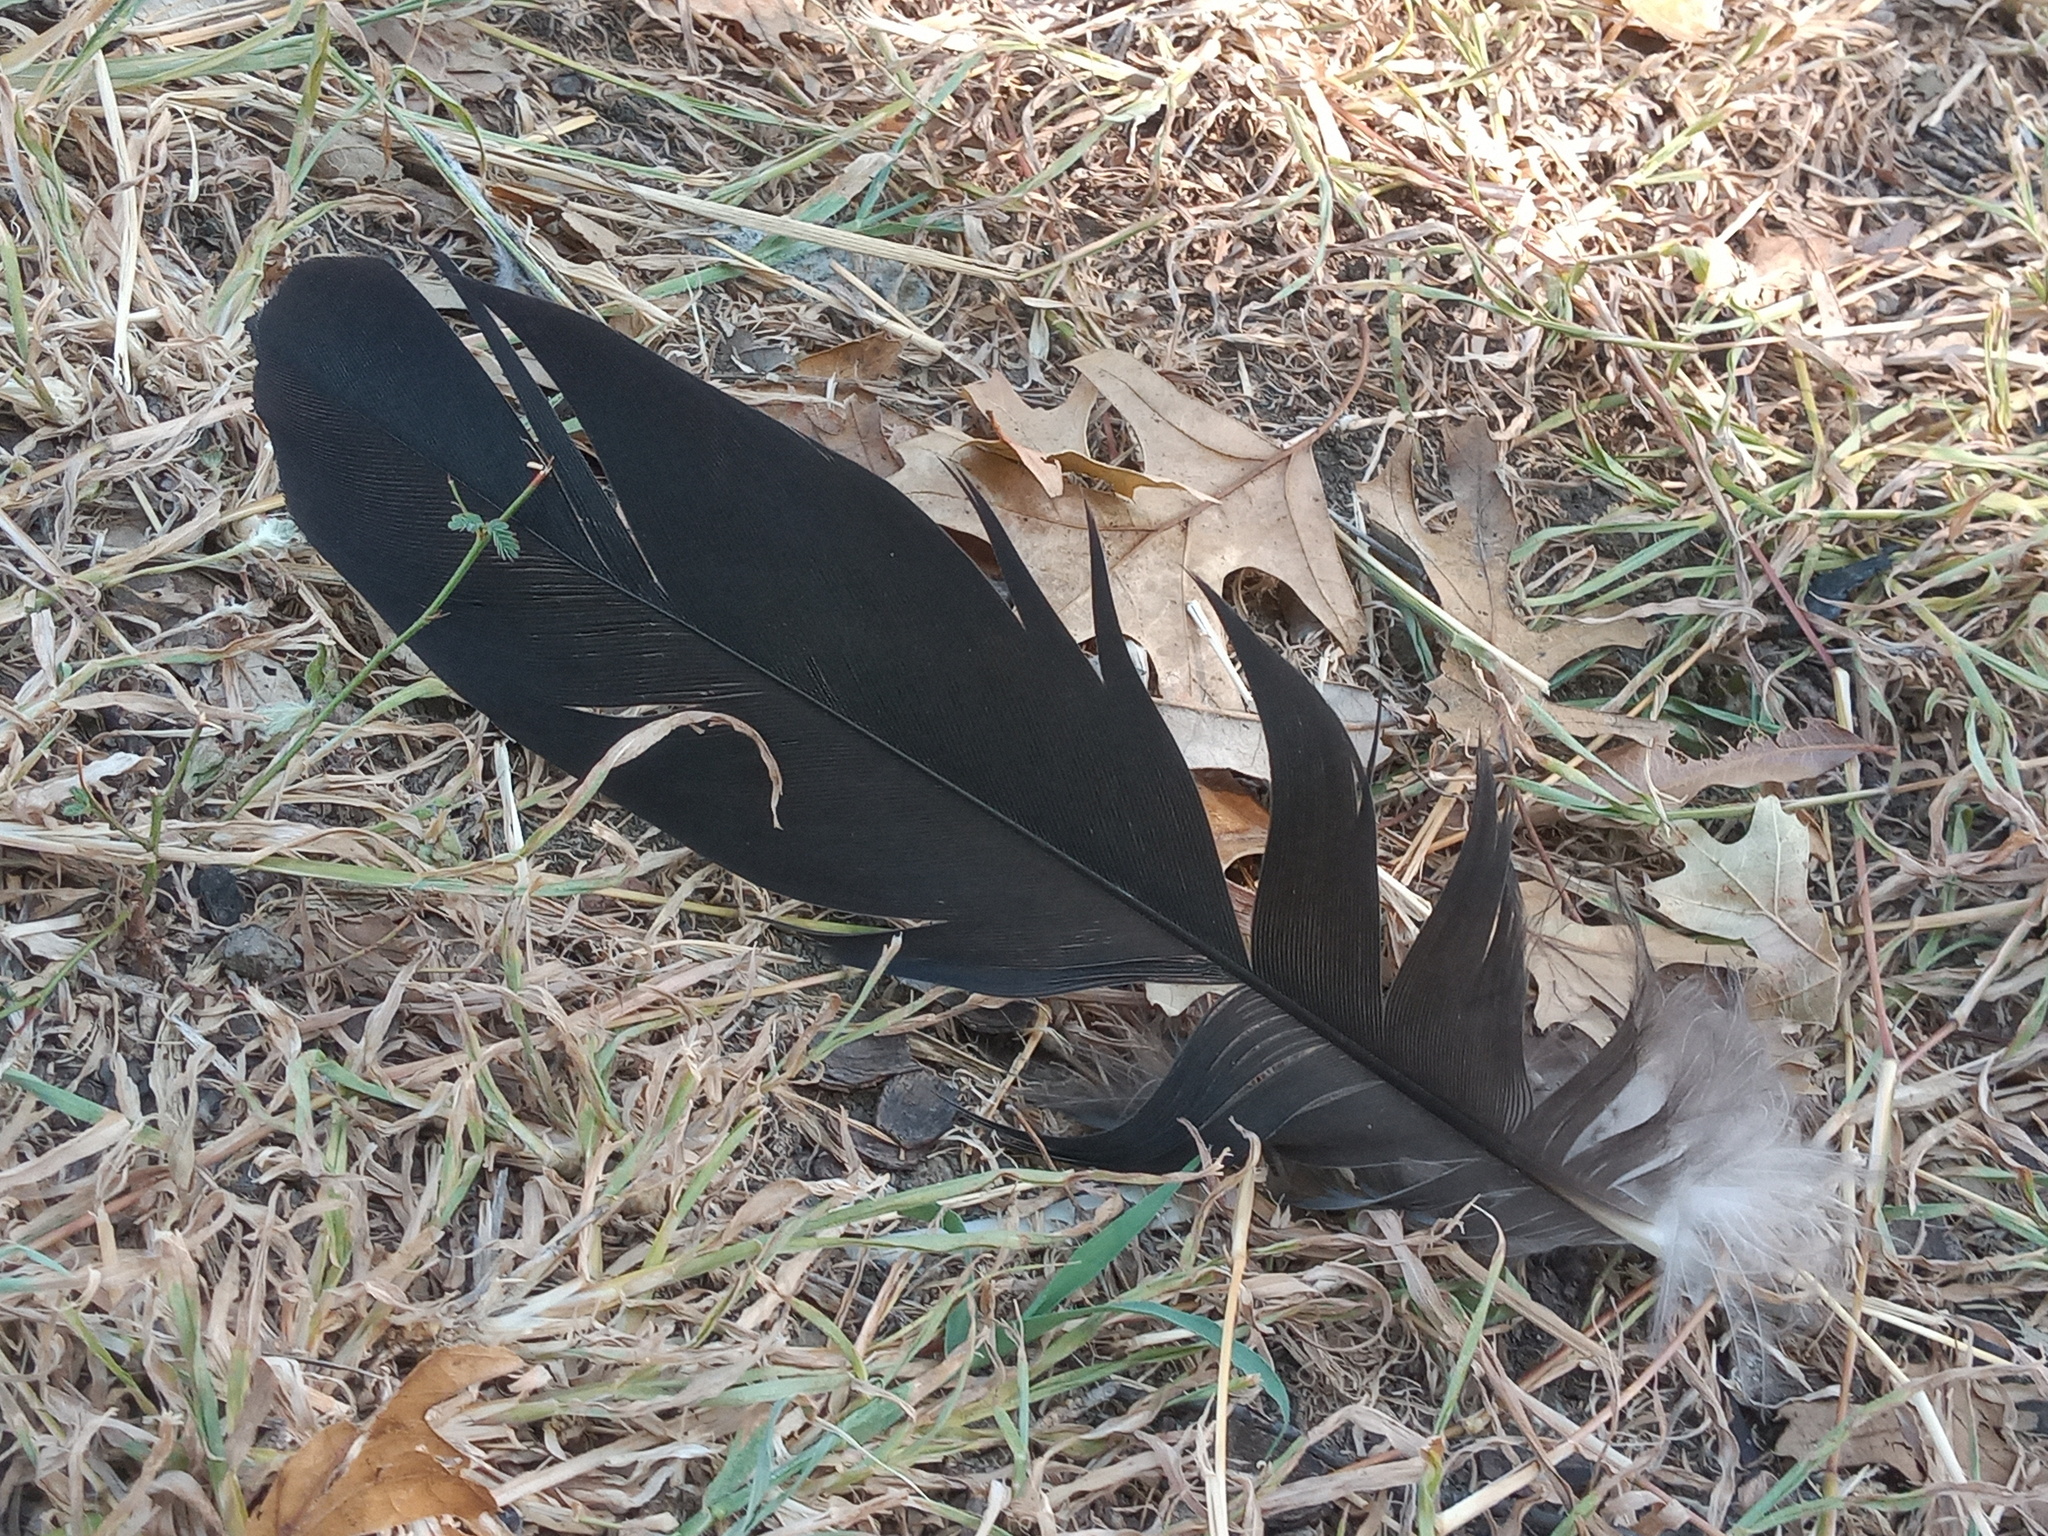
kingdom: Animalia
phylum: Chordata
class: Aves
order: Accipitriformes
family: Cathartidae
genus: Coragyps
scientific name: Coragyps atratus
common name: Black vulture
